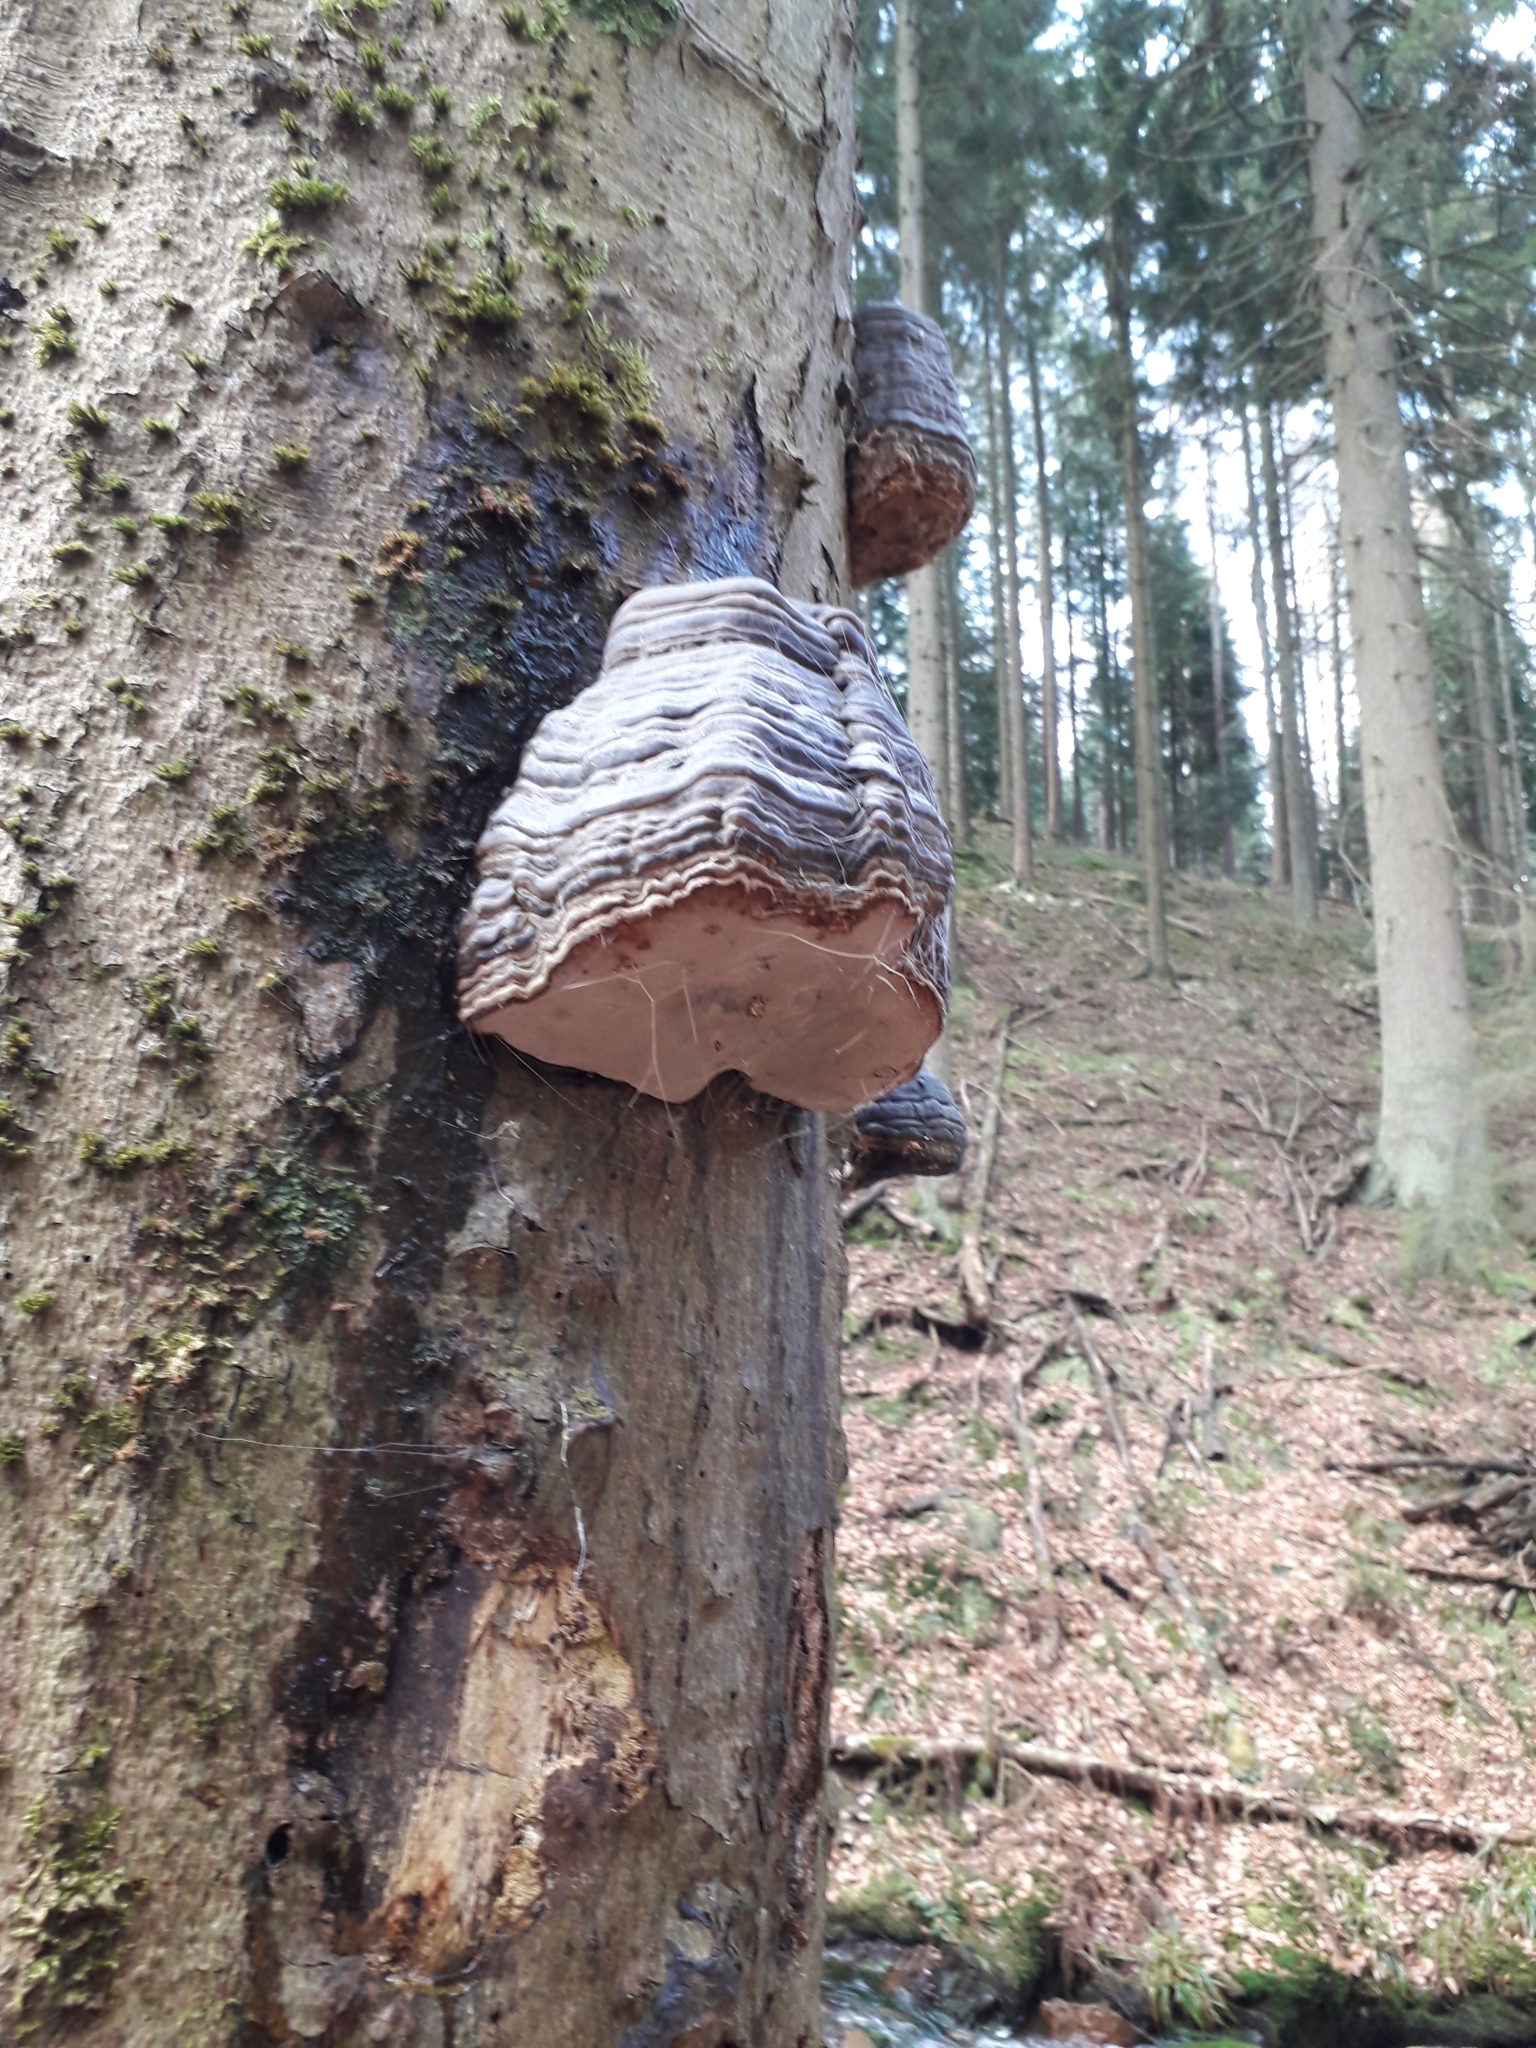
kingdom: Fungi
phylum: Basidiomycota
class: Agaricomycetes
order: Polyporales
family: Polyporaceae
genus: Fomes
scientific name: Fomes fomentarius
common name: Hoof fungus
